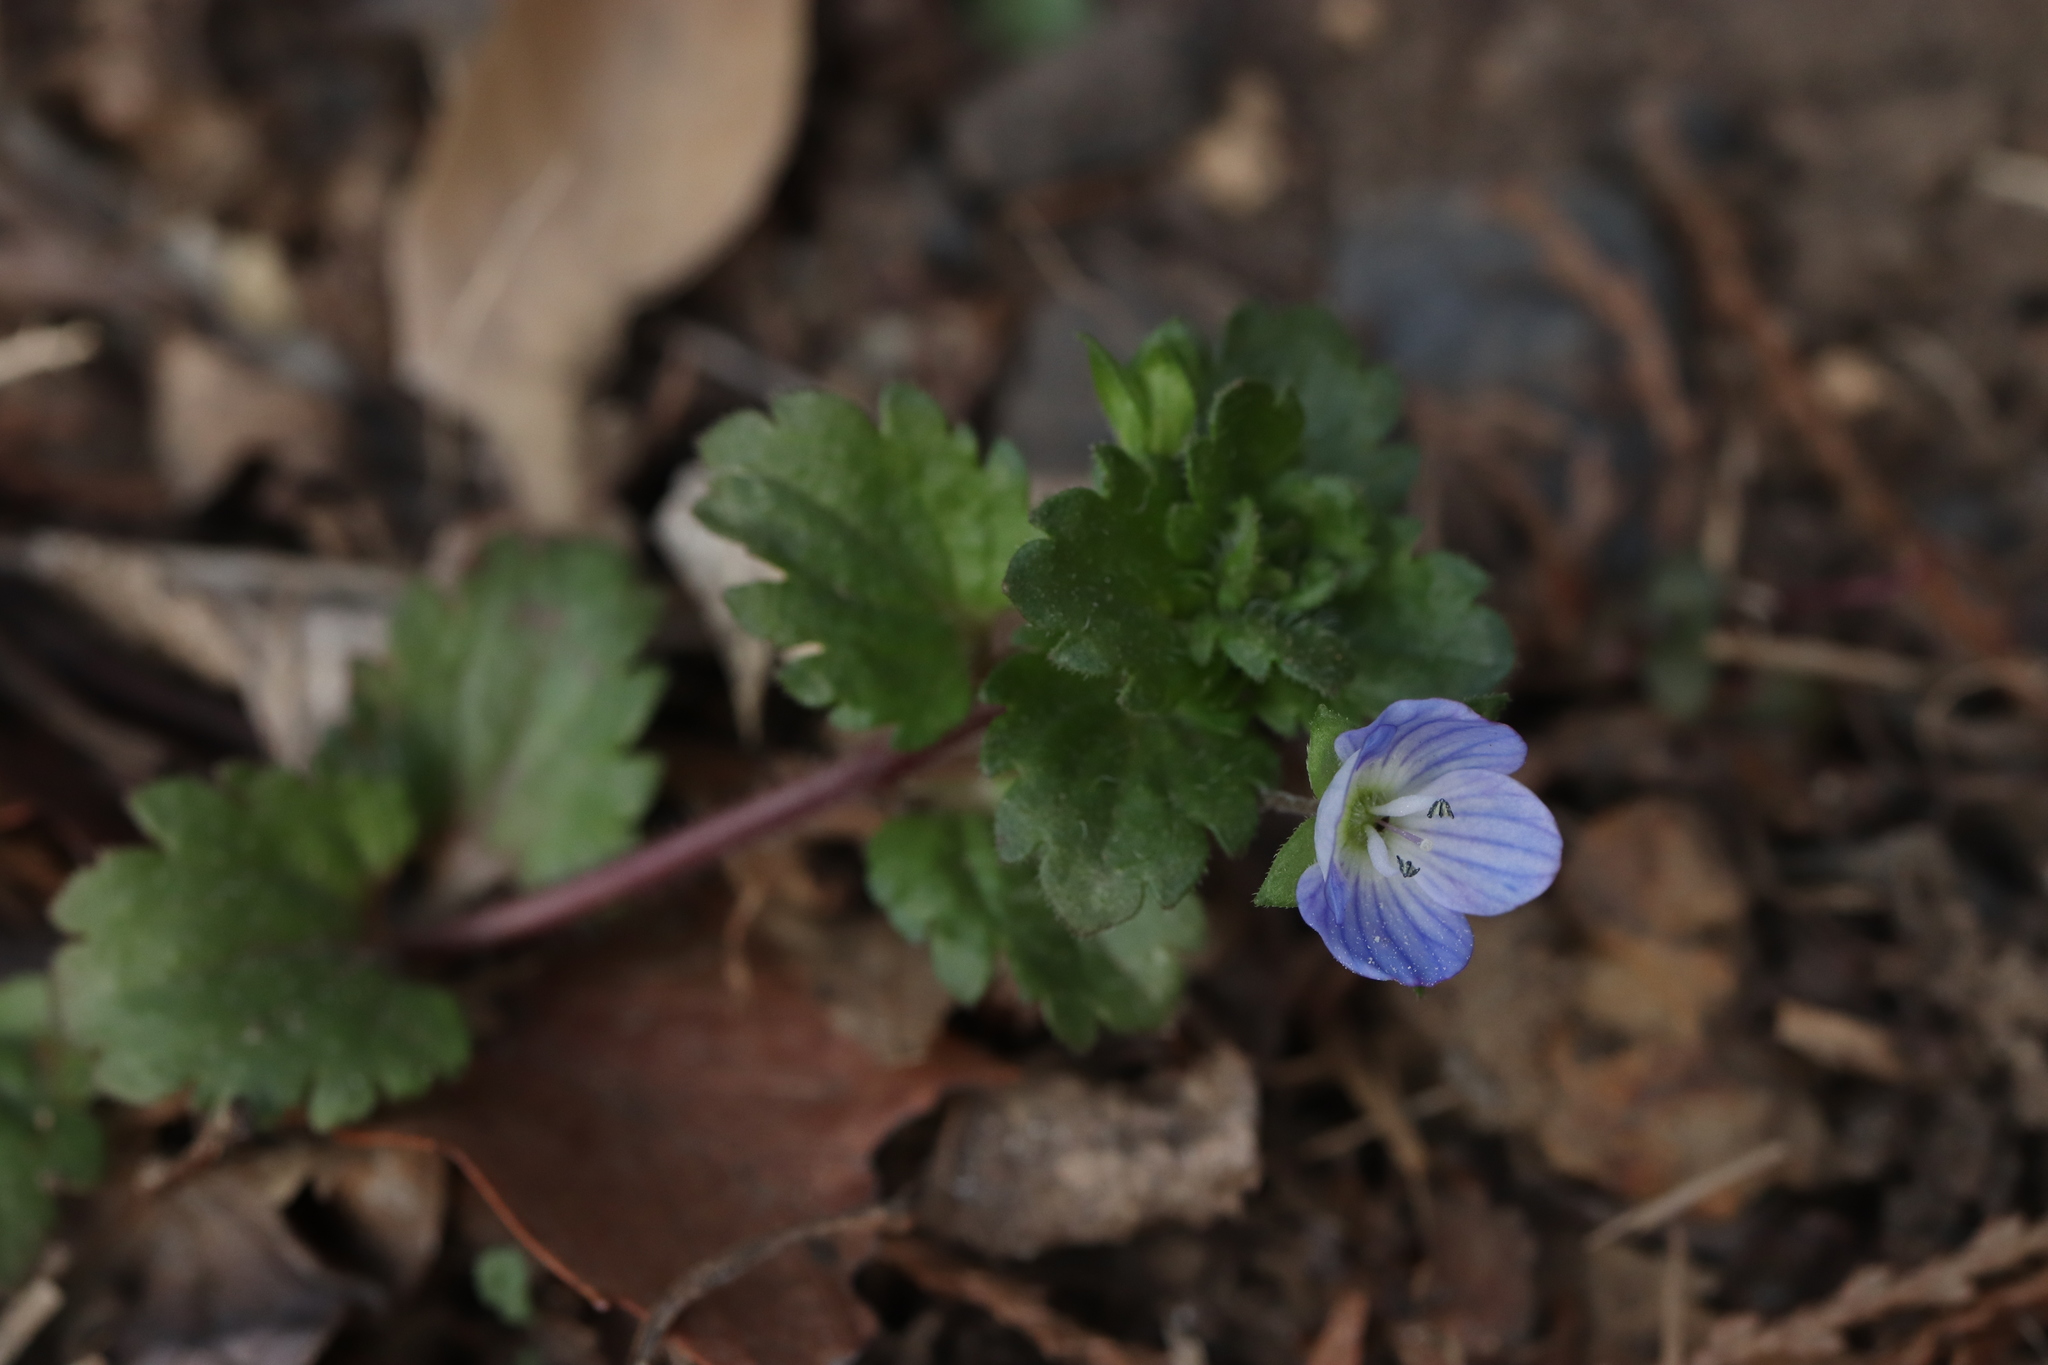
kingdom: Plantae
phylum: Tracheophyta
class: Magnoliopsida
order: Lamiales
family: Plantaginaceae
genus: Veronica
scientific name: Veronica persica
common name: Common field-speedwell
